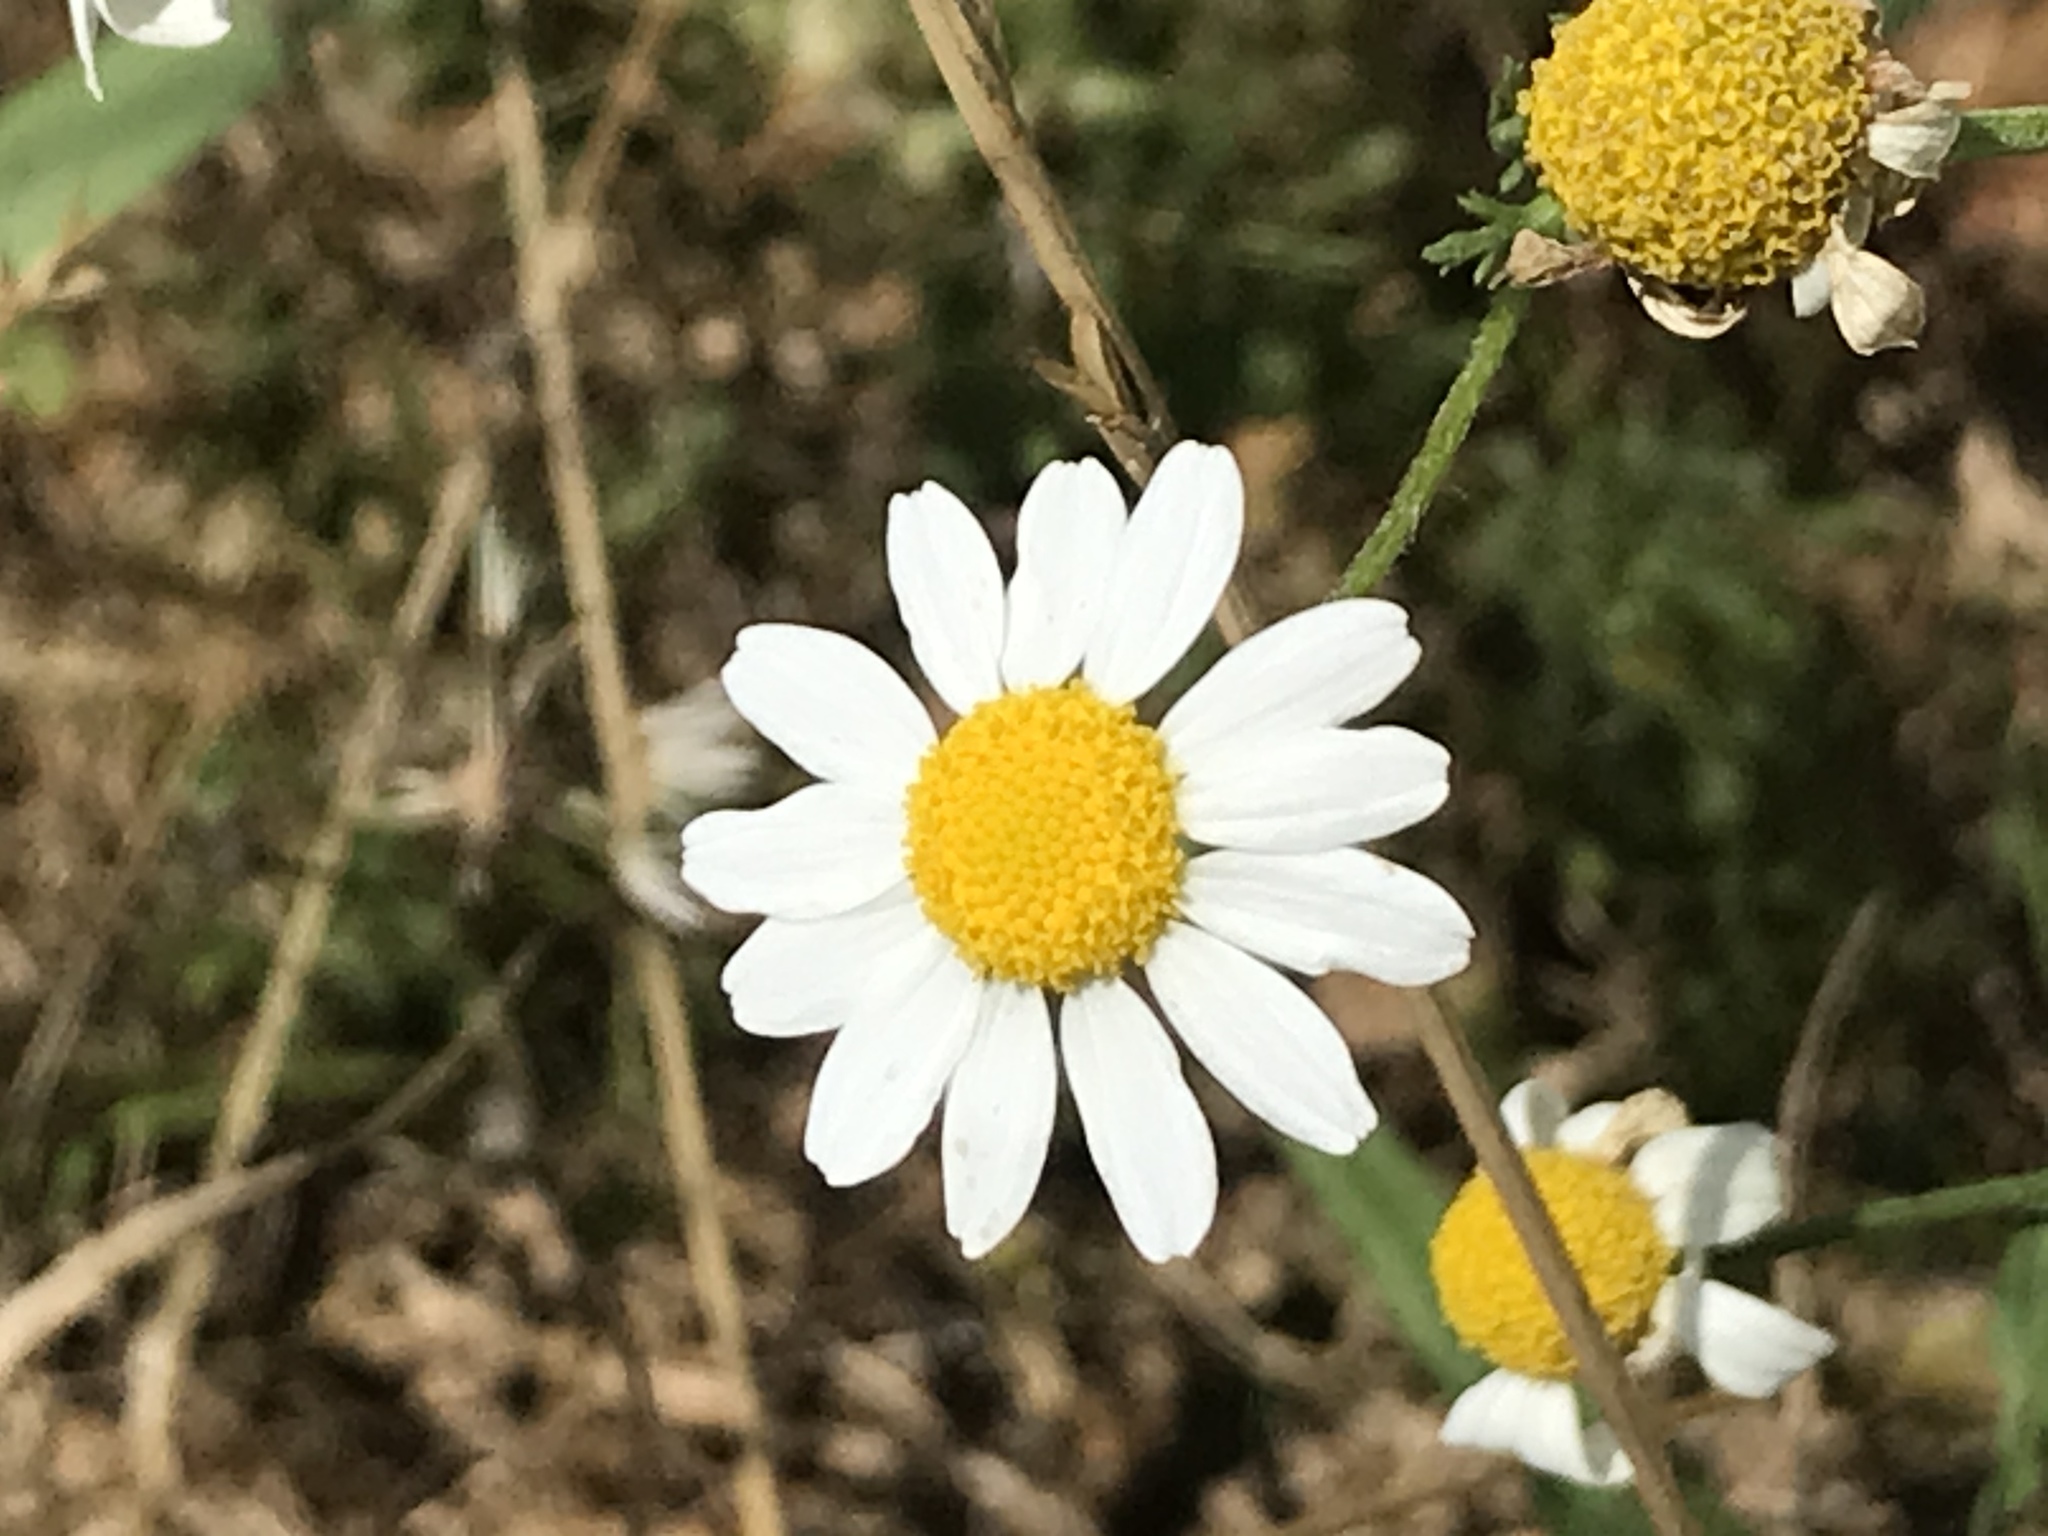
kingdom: Plantae
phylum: Tracheophyta
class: Magnoliopsida
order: Asterales
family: Asteraceae
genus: Anthemis
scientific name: Anthemis cotula
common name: Stinking chamomile
